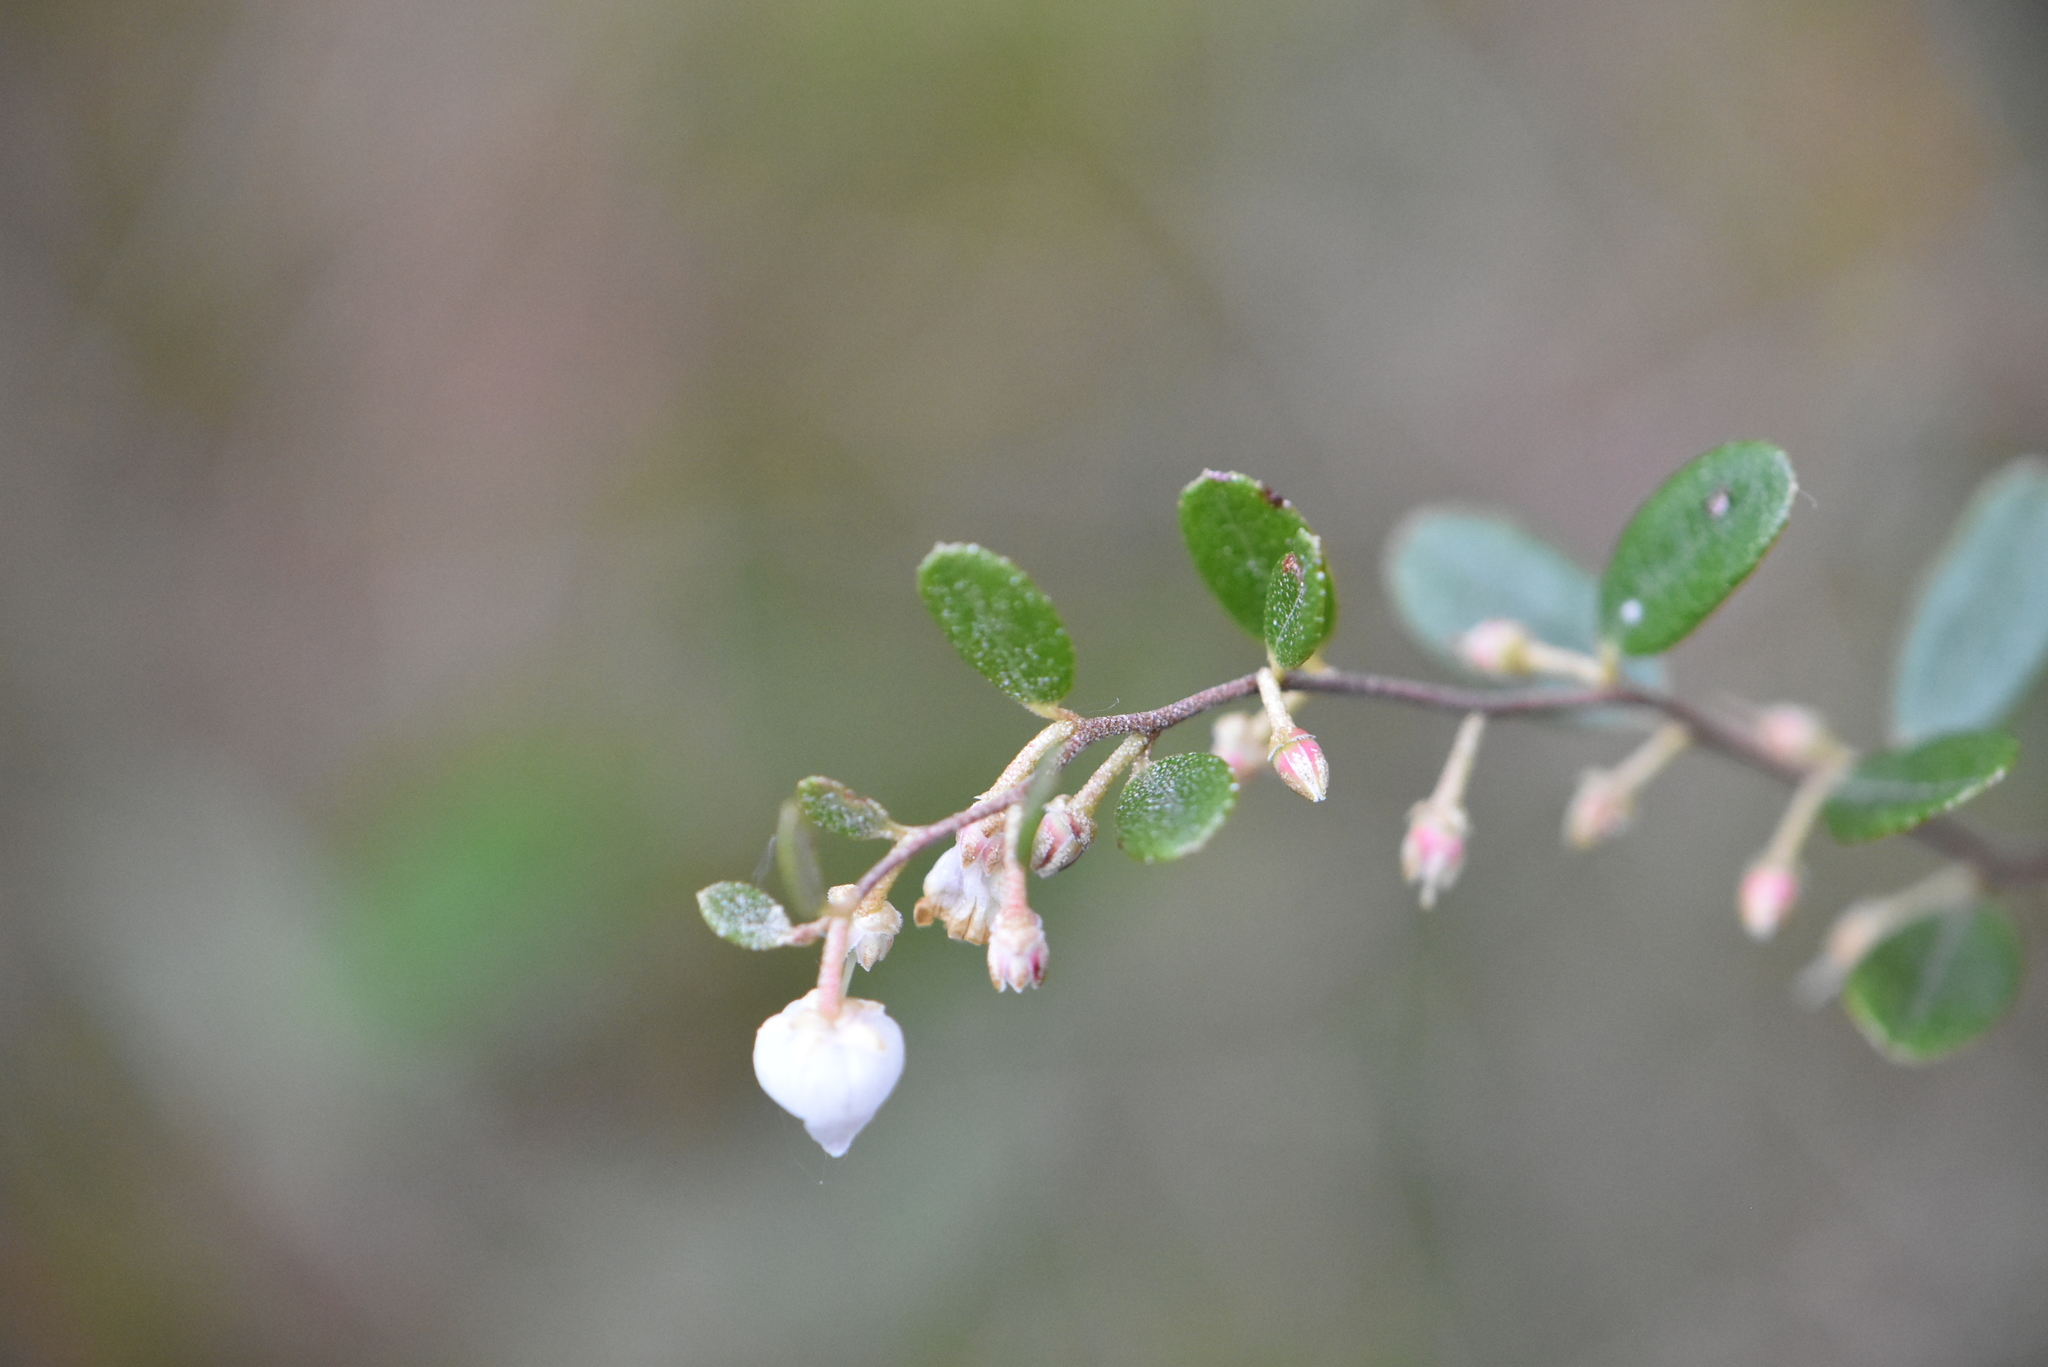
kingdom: Plantae
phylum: Tracheophyta
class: Magnoliopsida
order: Ericales
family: Ericaceae
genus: Chamaedaphne
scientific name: Chamaedaphne calyculata
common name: Leatherleaf
